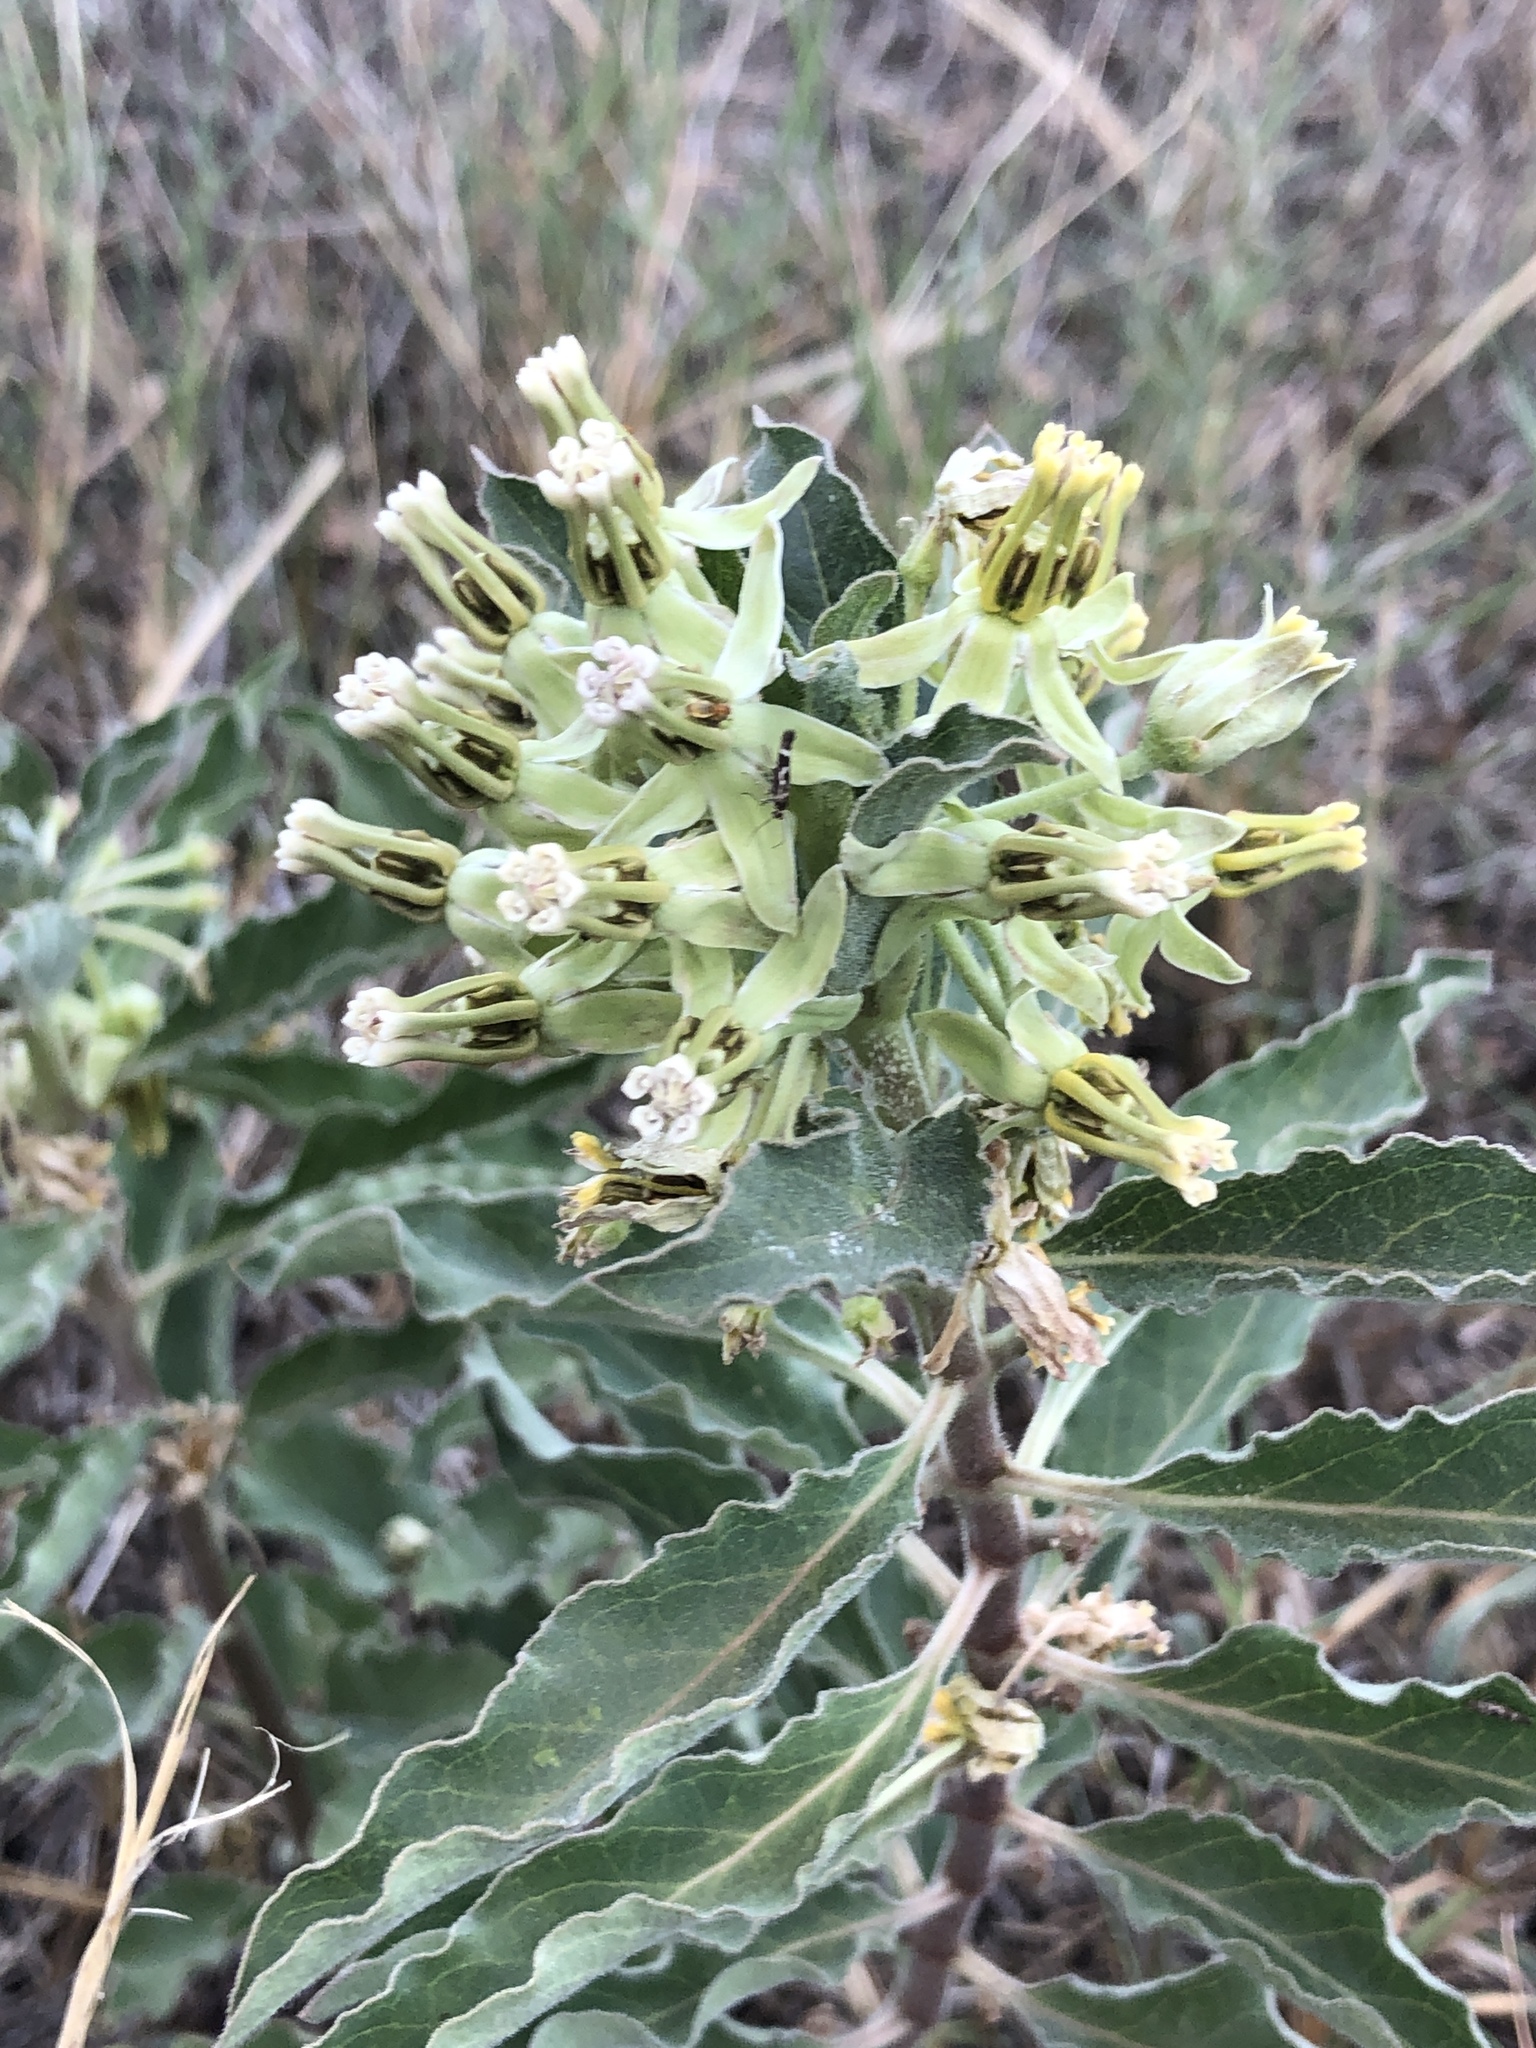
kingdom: Plantae
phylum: Tracheophyta
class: Magnoliopsida
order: Gentianales
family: Apocynaceae
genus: Asclepias
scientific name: Asclepias oenotheroides
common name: Zizotes milkweed
